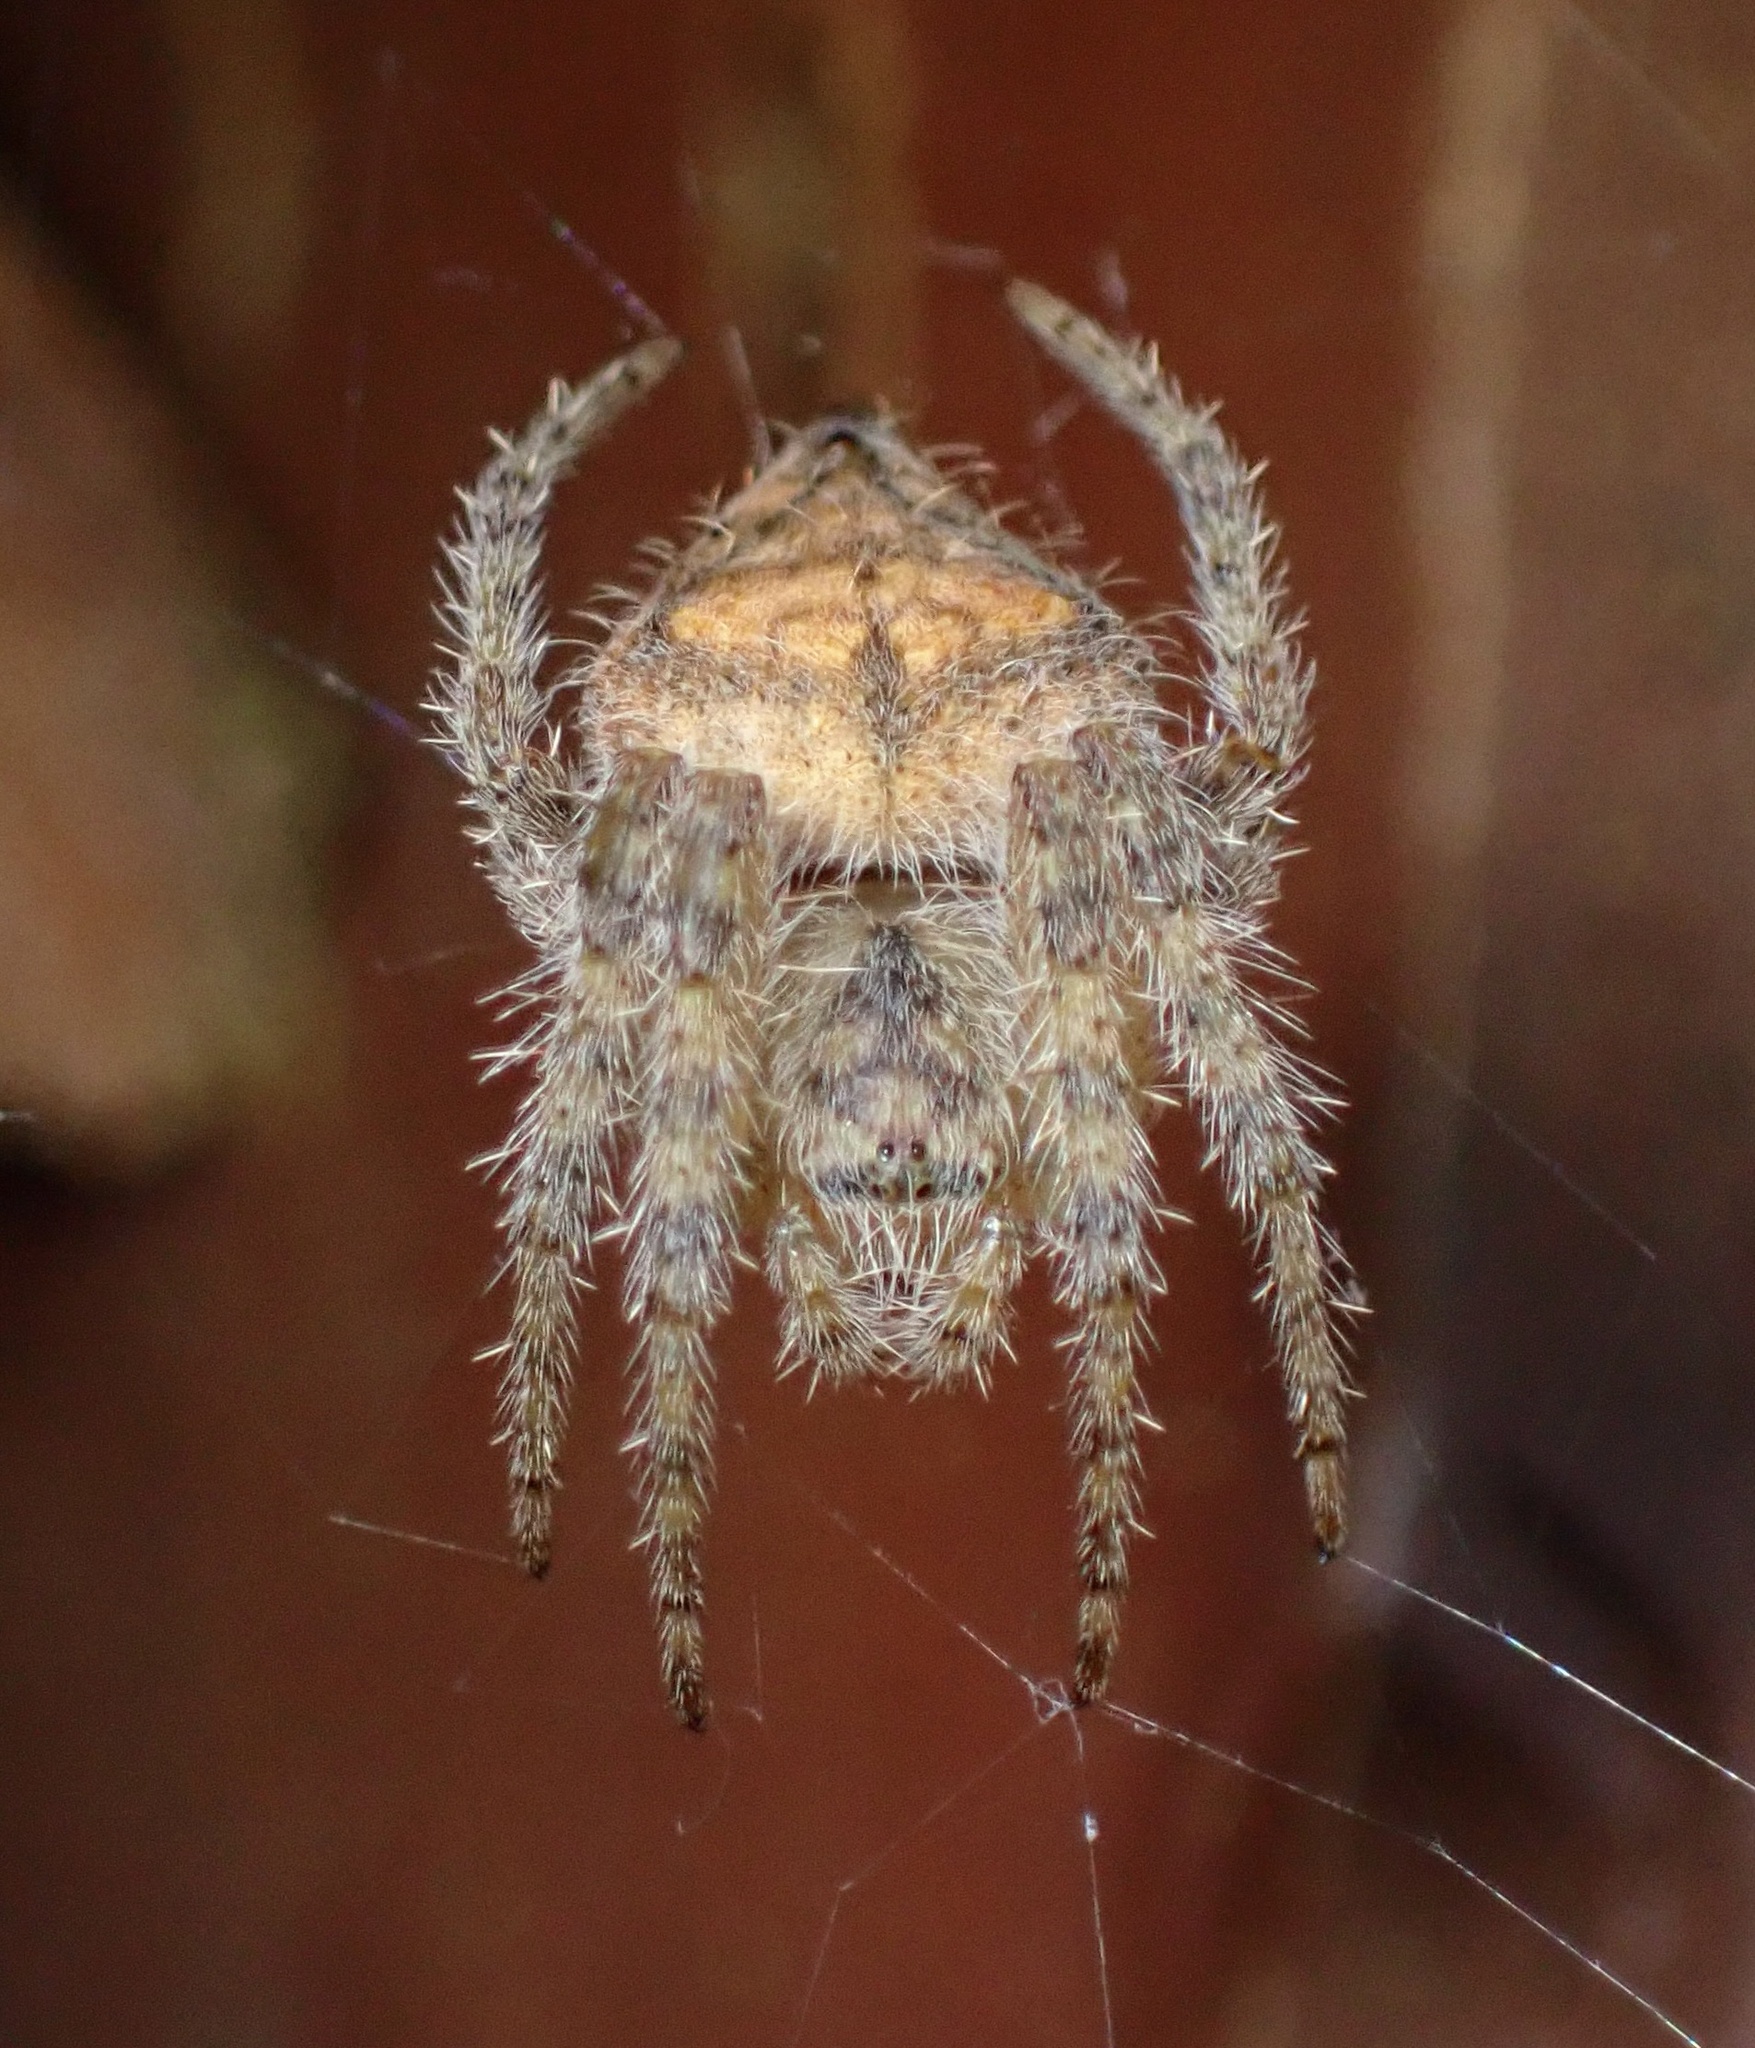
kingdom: Animalia
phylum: Arthropoda
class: Arachnida
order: Araneae
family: Araneidae
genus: Eriophora
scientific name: Eriophora edax
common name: Orb weavers
